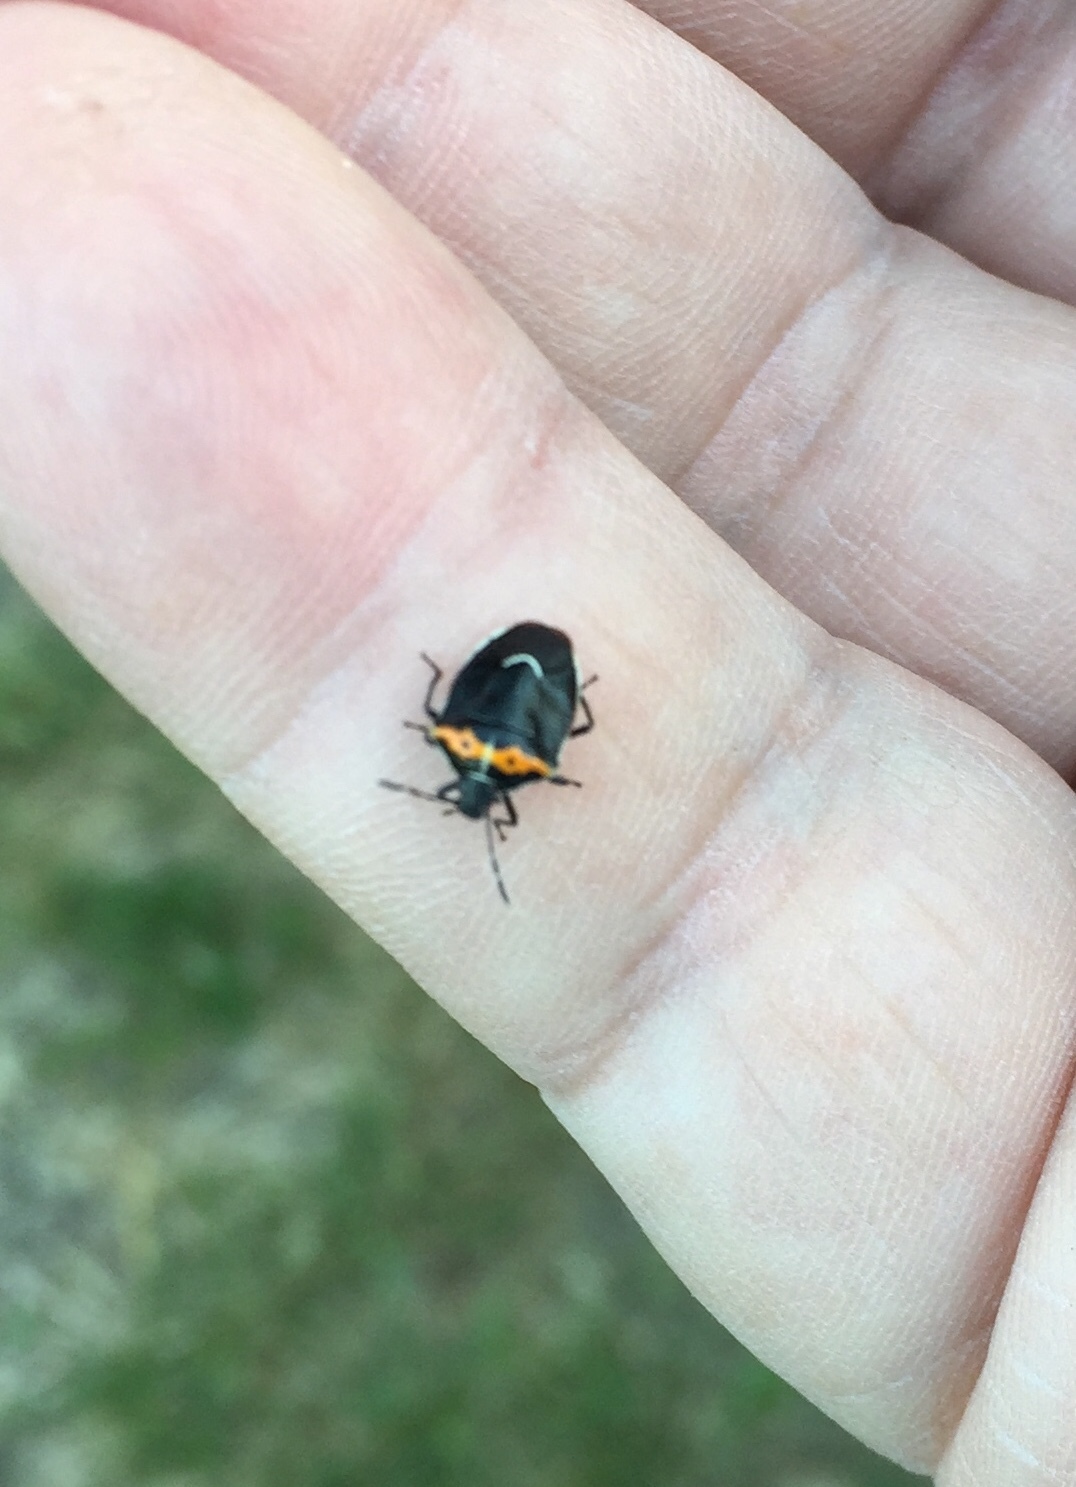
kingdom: Animalia
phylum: Arthropoda
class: Insecta
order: Hemiptera
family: Pentatomidae
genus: Cosmopepla
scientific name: Cosmopepla conspicillaris
